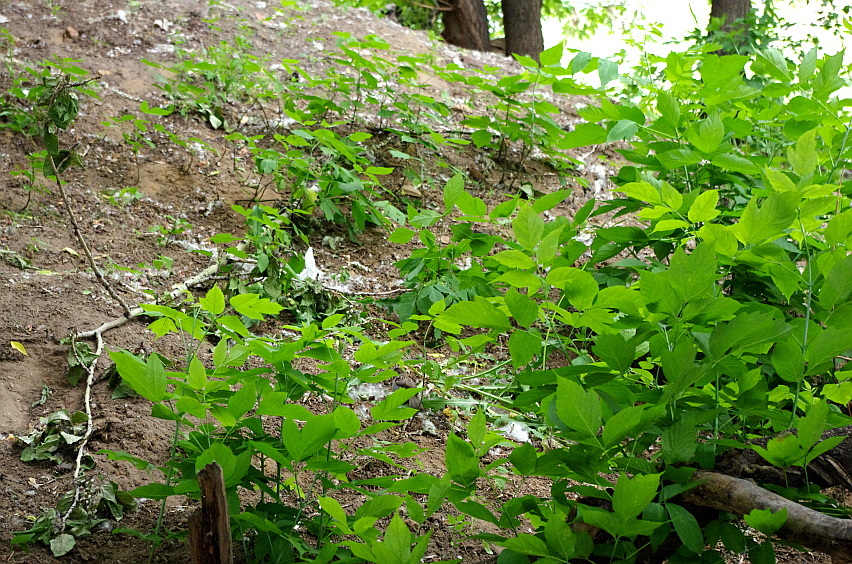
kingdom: Plantae
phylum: Tracheophyta
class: Magnoliopsida
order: Sapindales
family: Sapindaceae
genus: Acer
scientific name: Acer negundo
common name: Ashleaf maple
